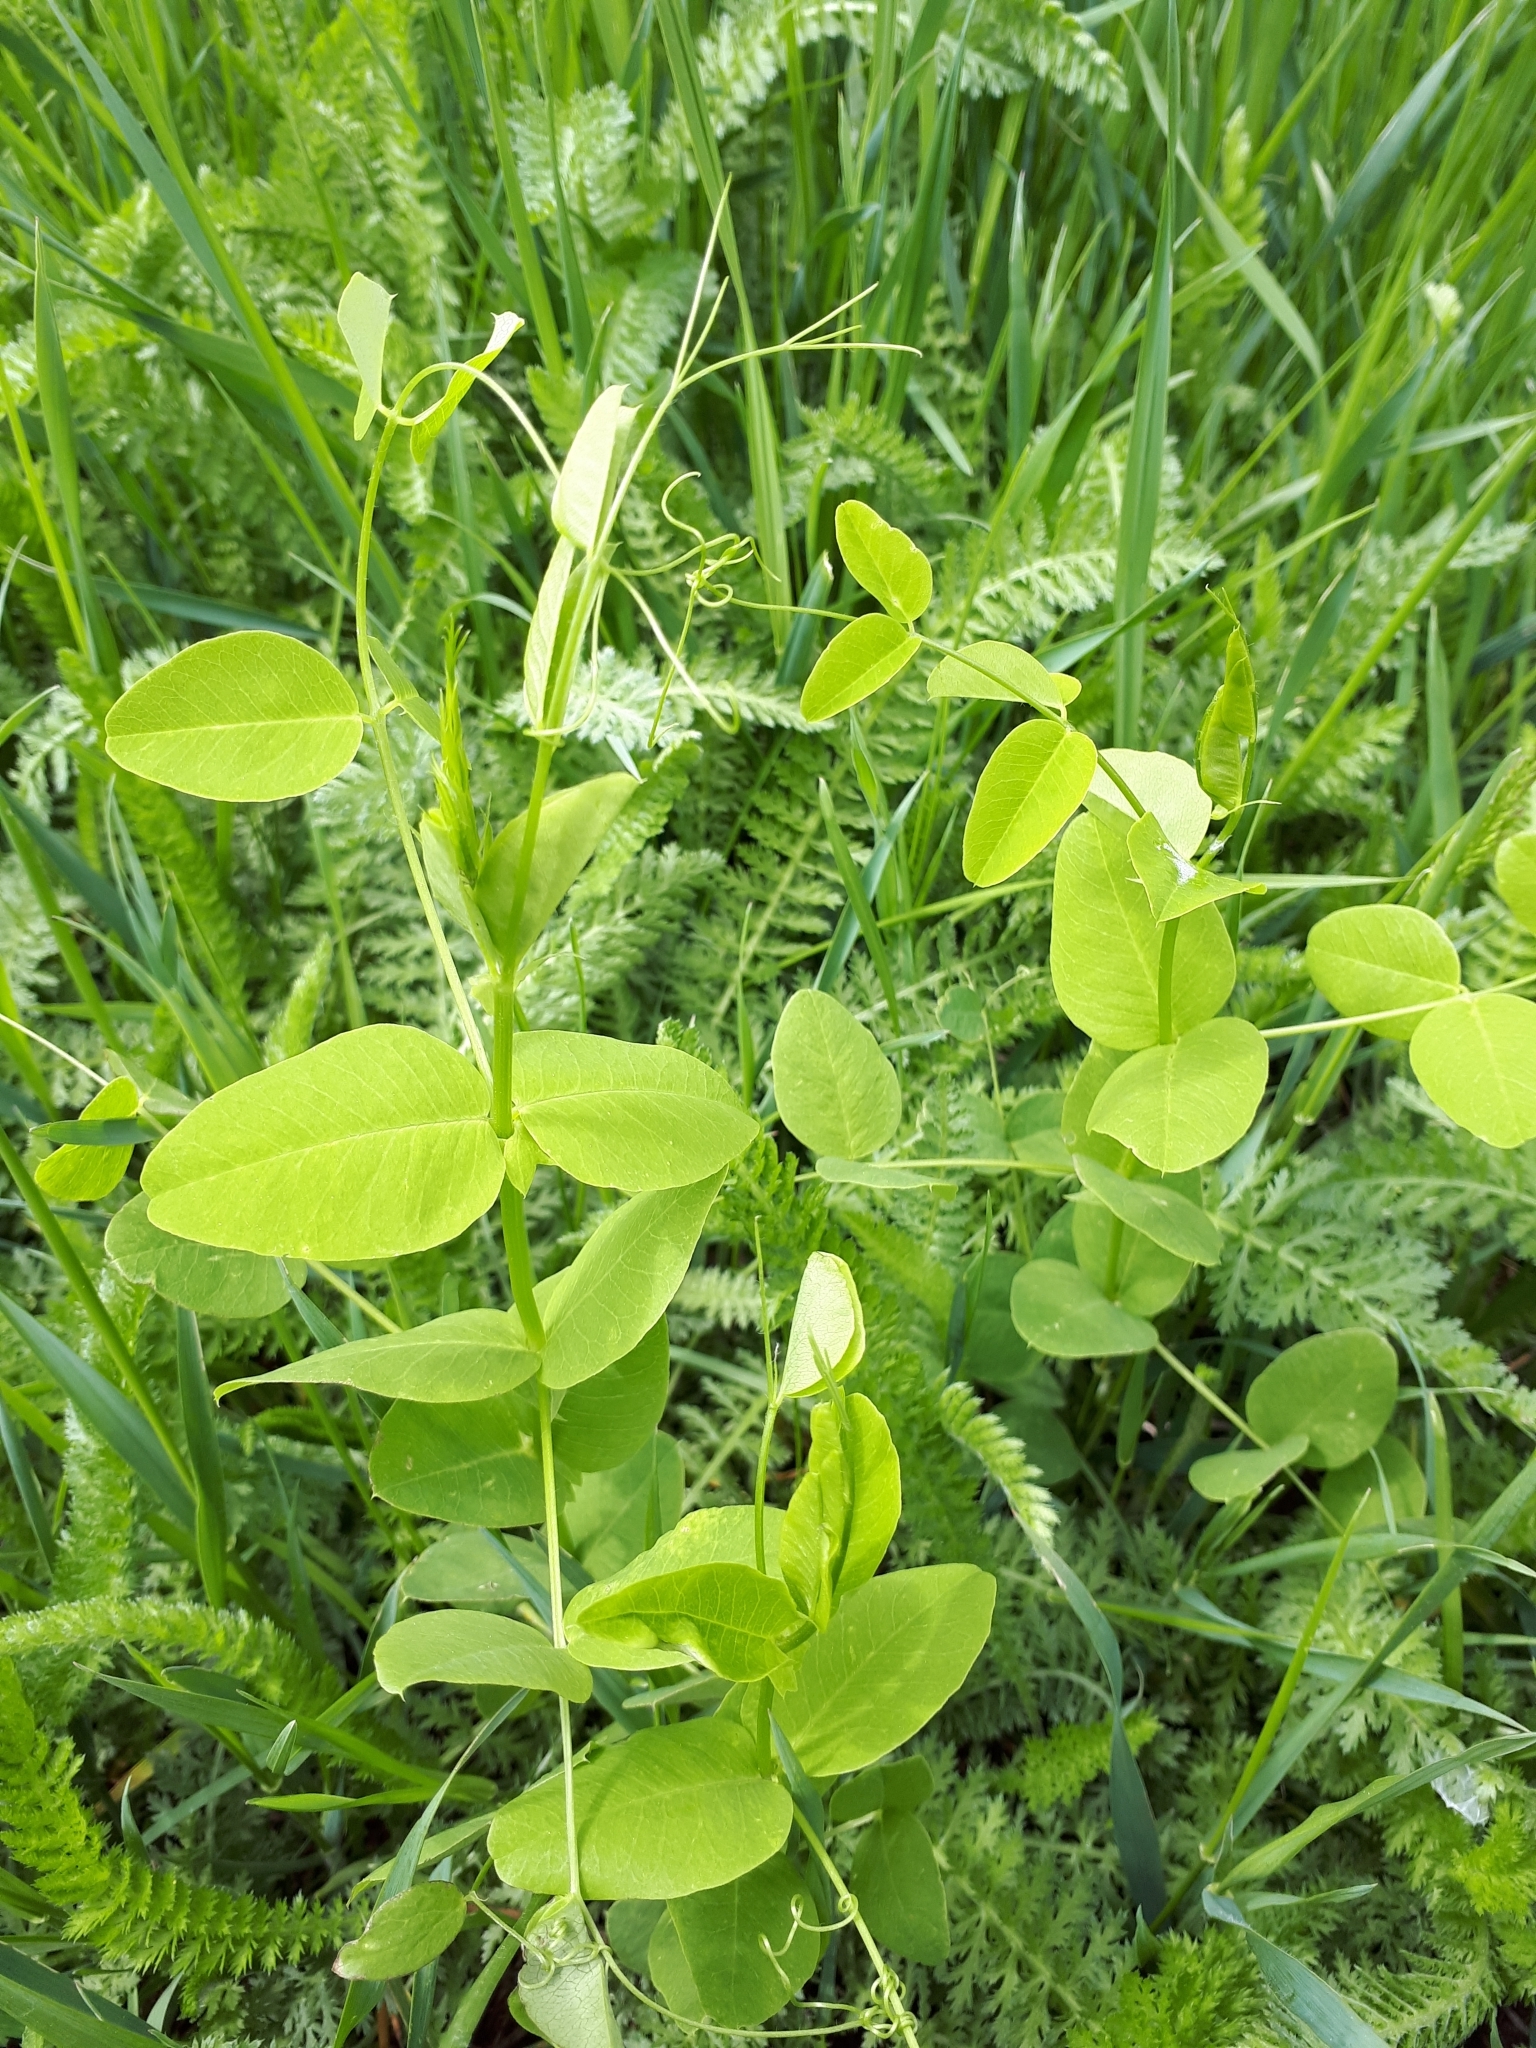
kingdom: Plantae
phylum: Tracheophyta
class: Magnoliopsida
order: Fabales
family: Fabaceae
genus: Vicia
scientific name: Vicia pisiformis
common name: Pale-flower vetch
